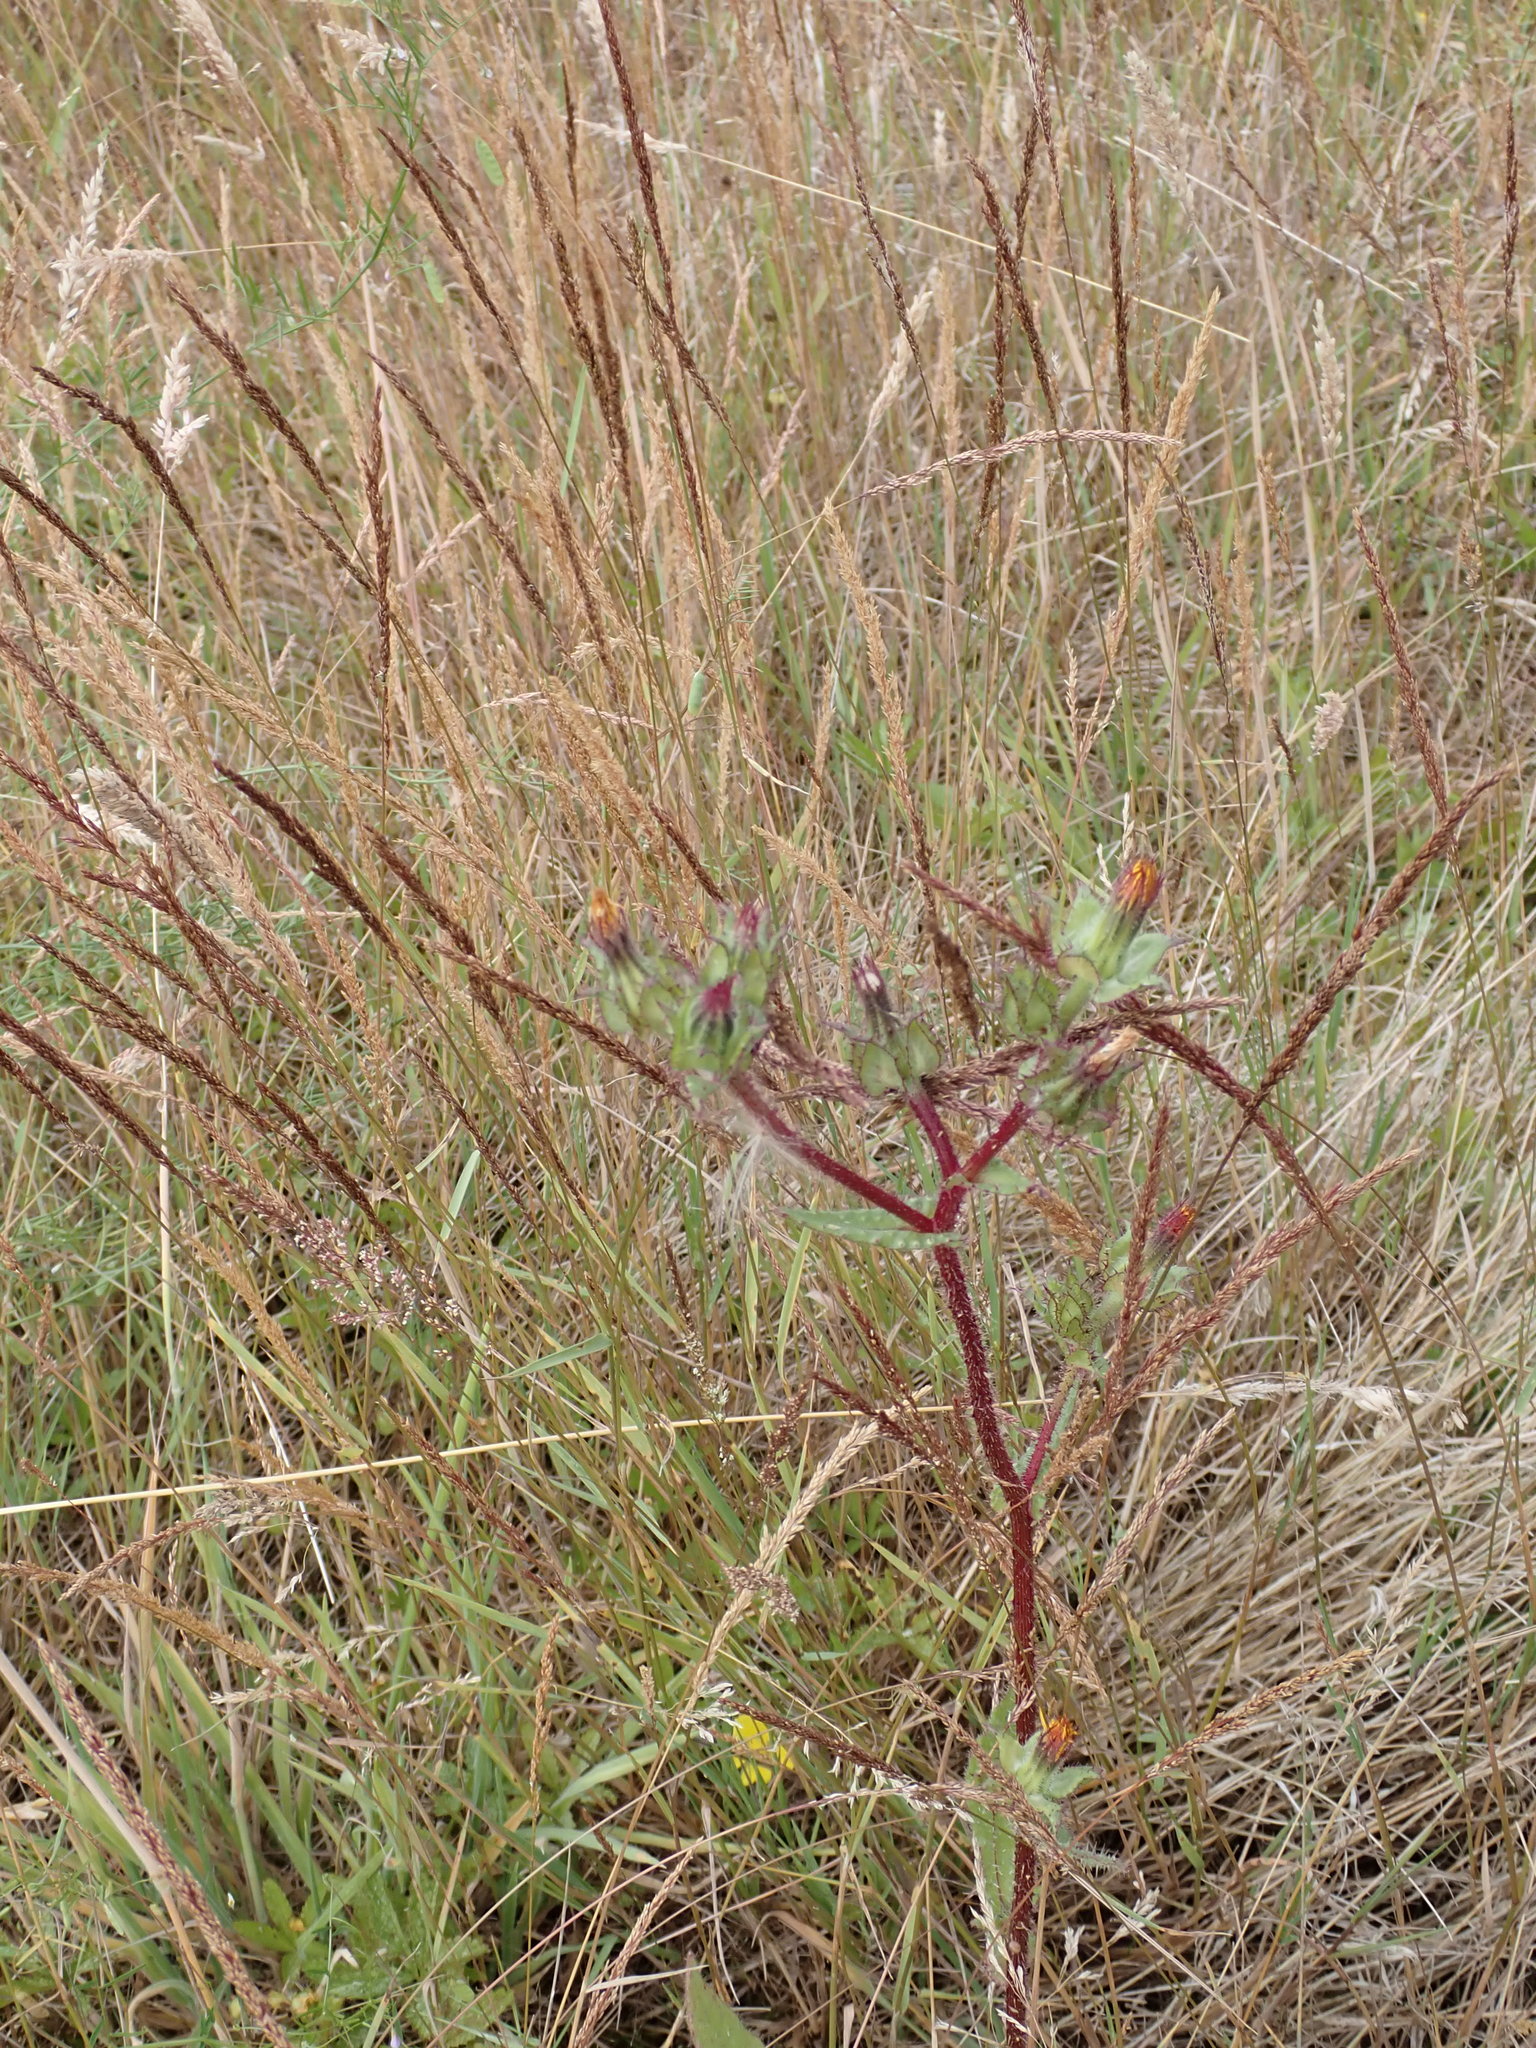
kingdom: Plantae
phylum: Tracheophyta
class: Magnoliopsida
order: Asterales
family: Asteraceae
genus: Helminthotheca
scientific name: Helminthotheca echioides
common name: Ox-tongue
